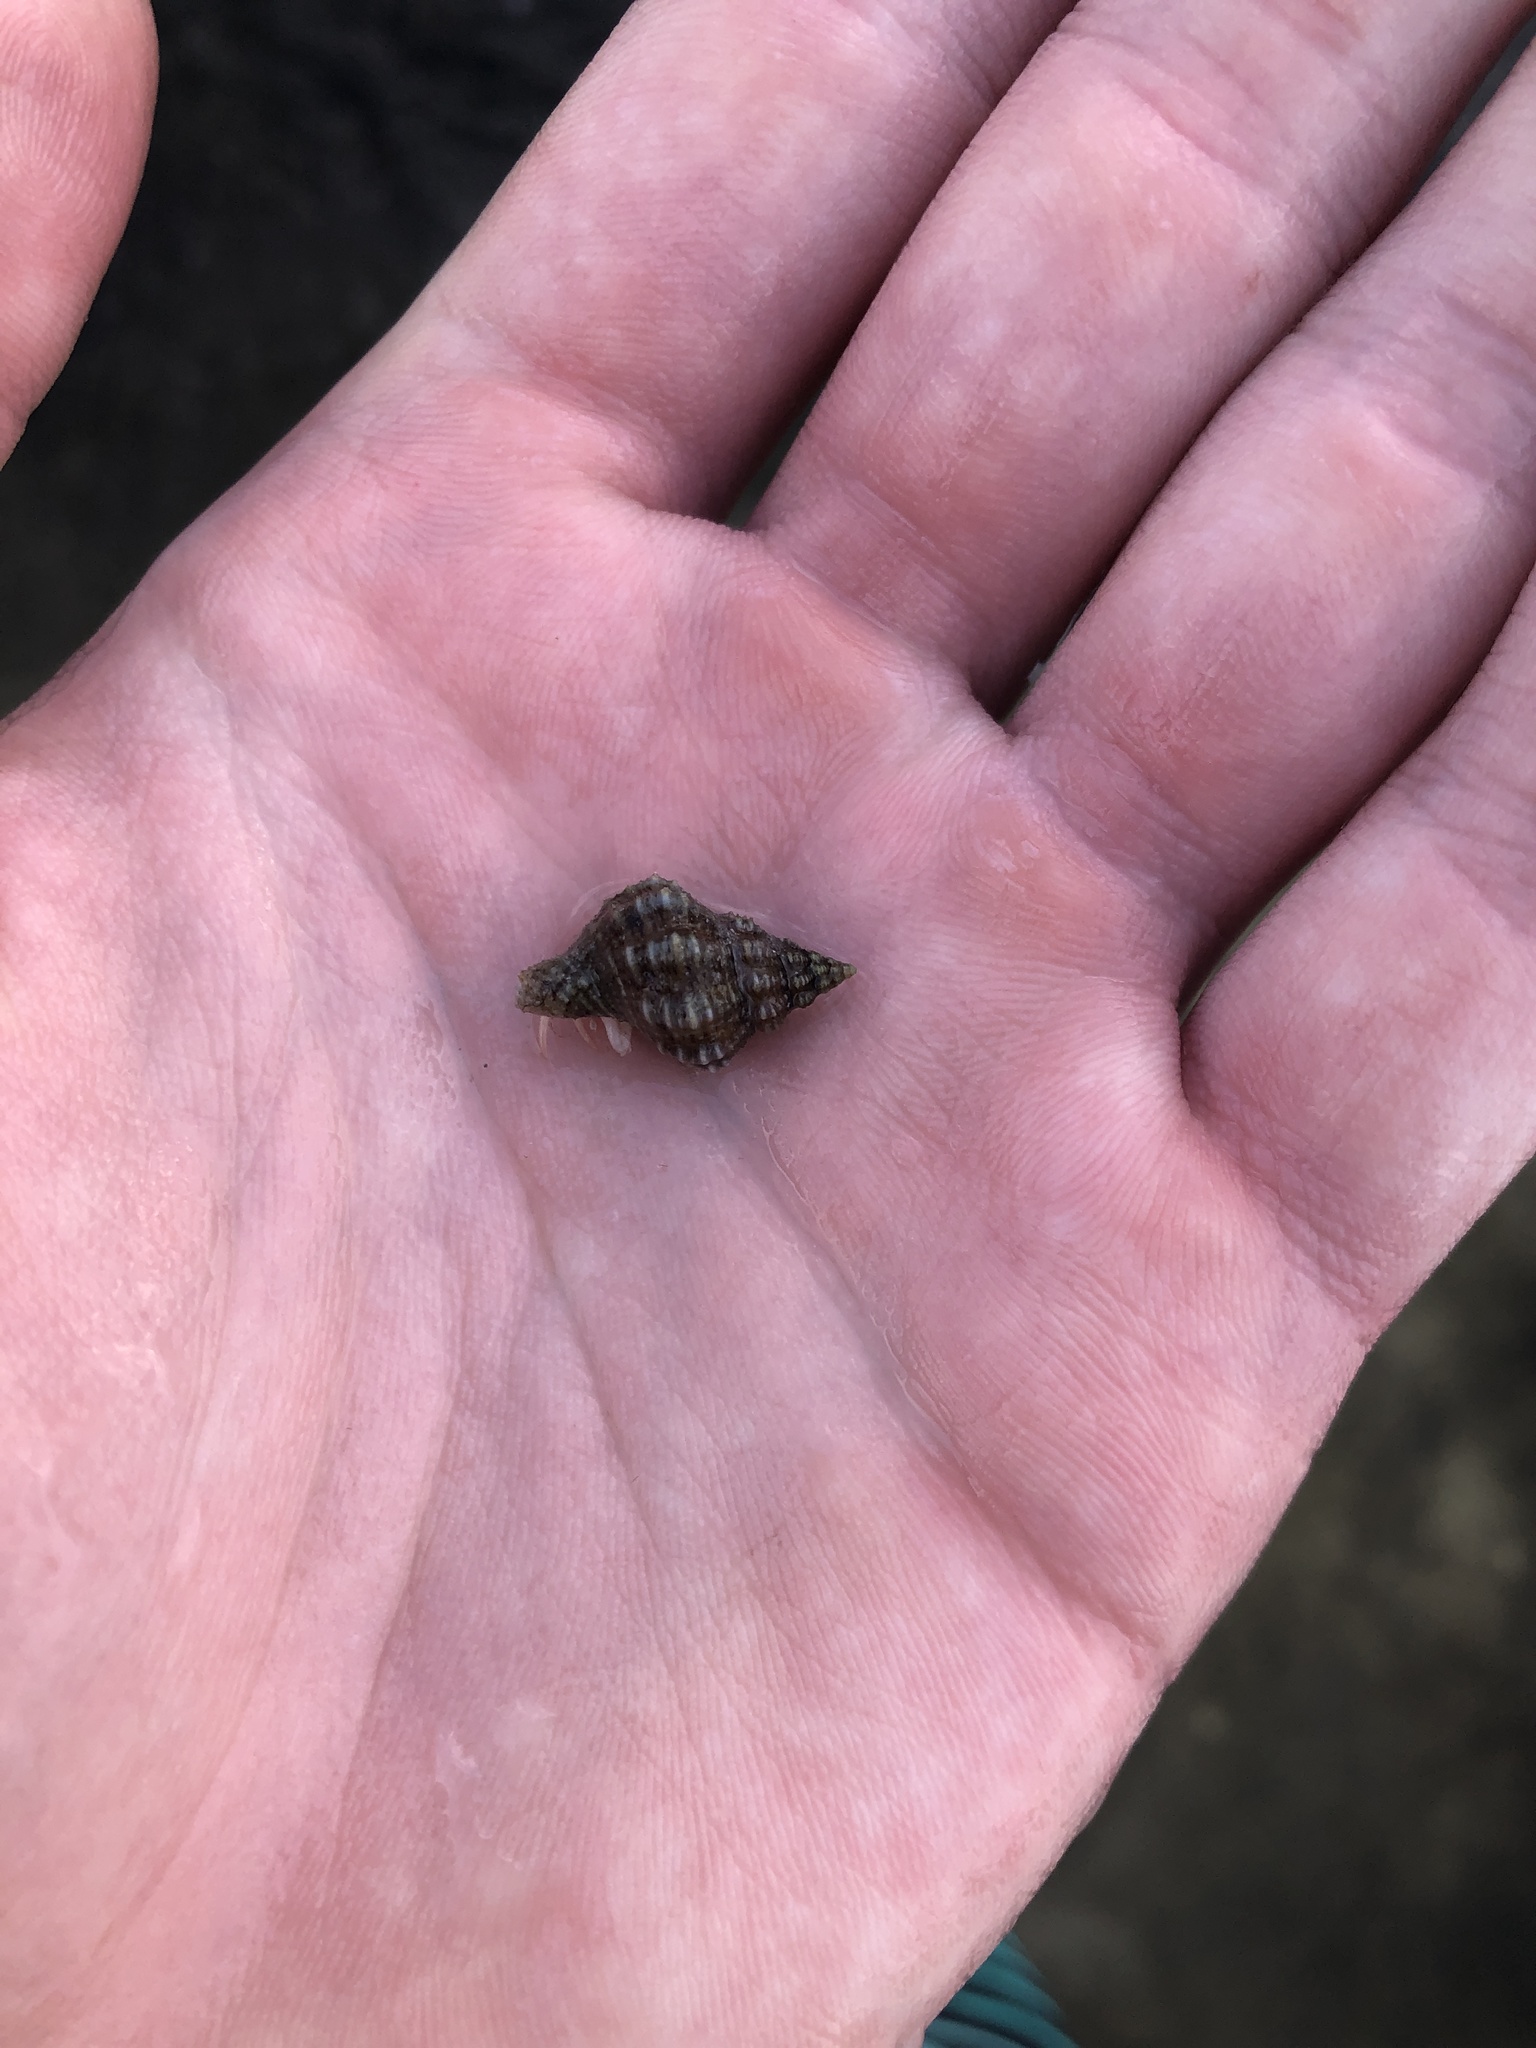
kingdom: Animalia
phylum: Mollusca
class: Gastropoda
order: Neogastropoda
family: Pisaniidae
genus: Hesperisternia
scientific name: Hesperisternia multangulus
